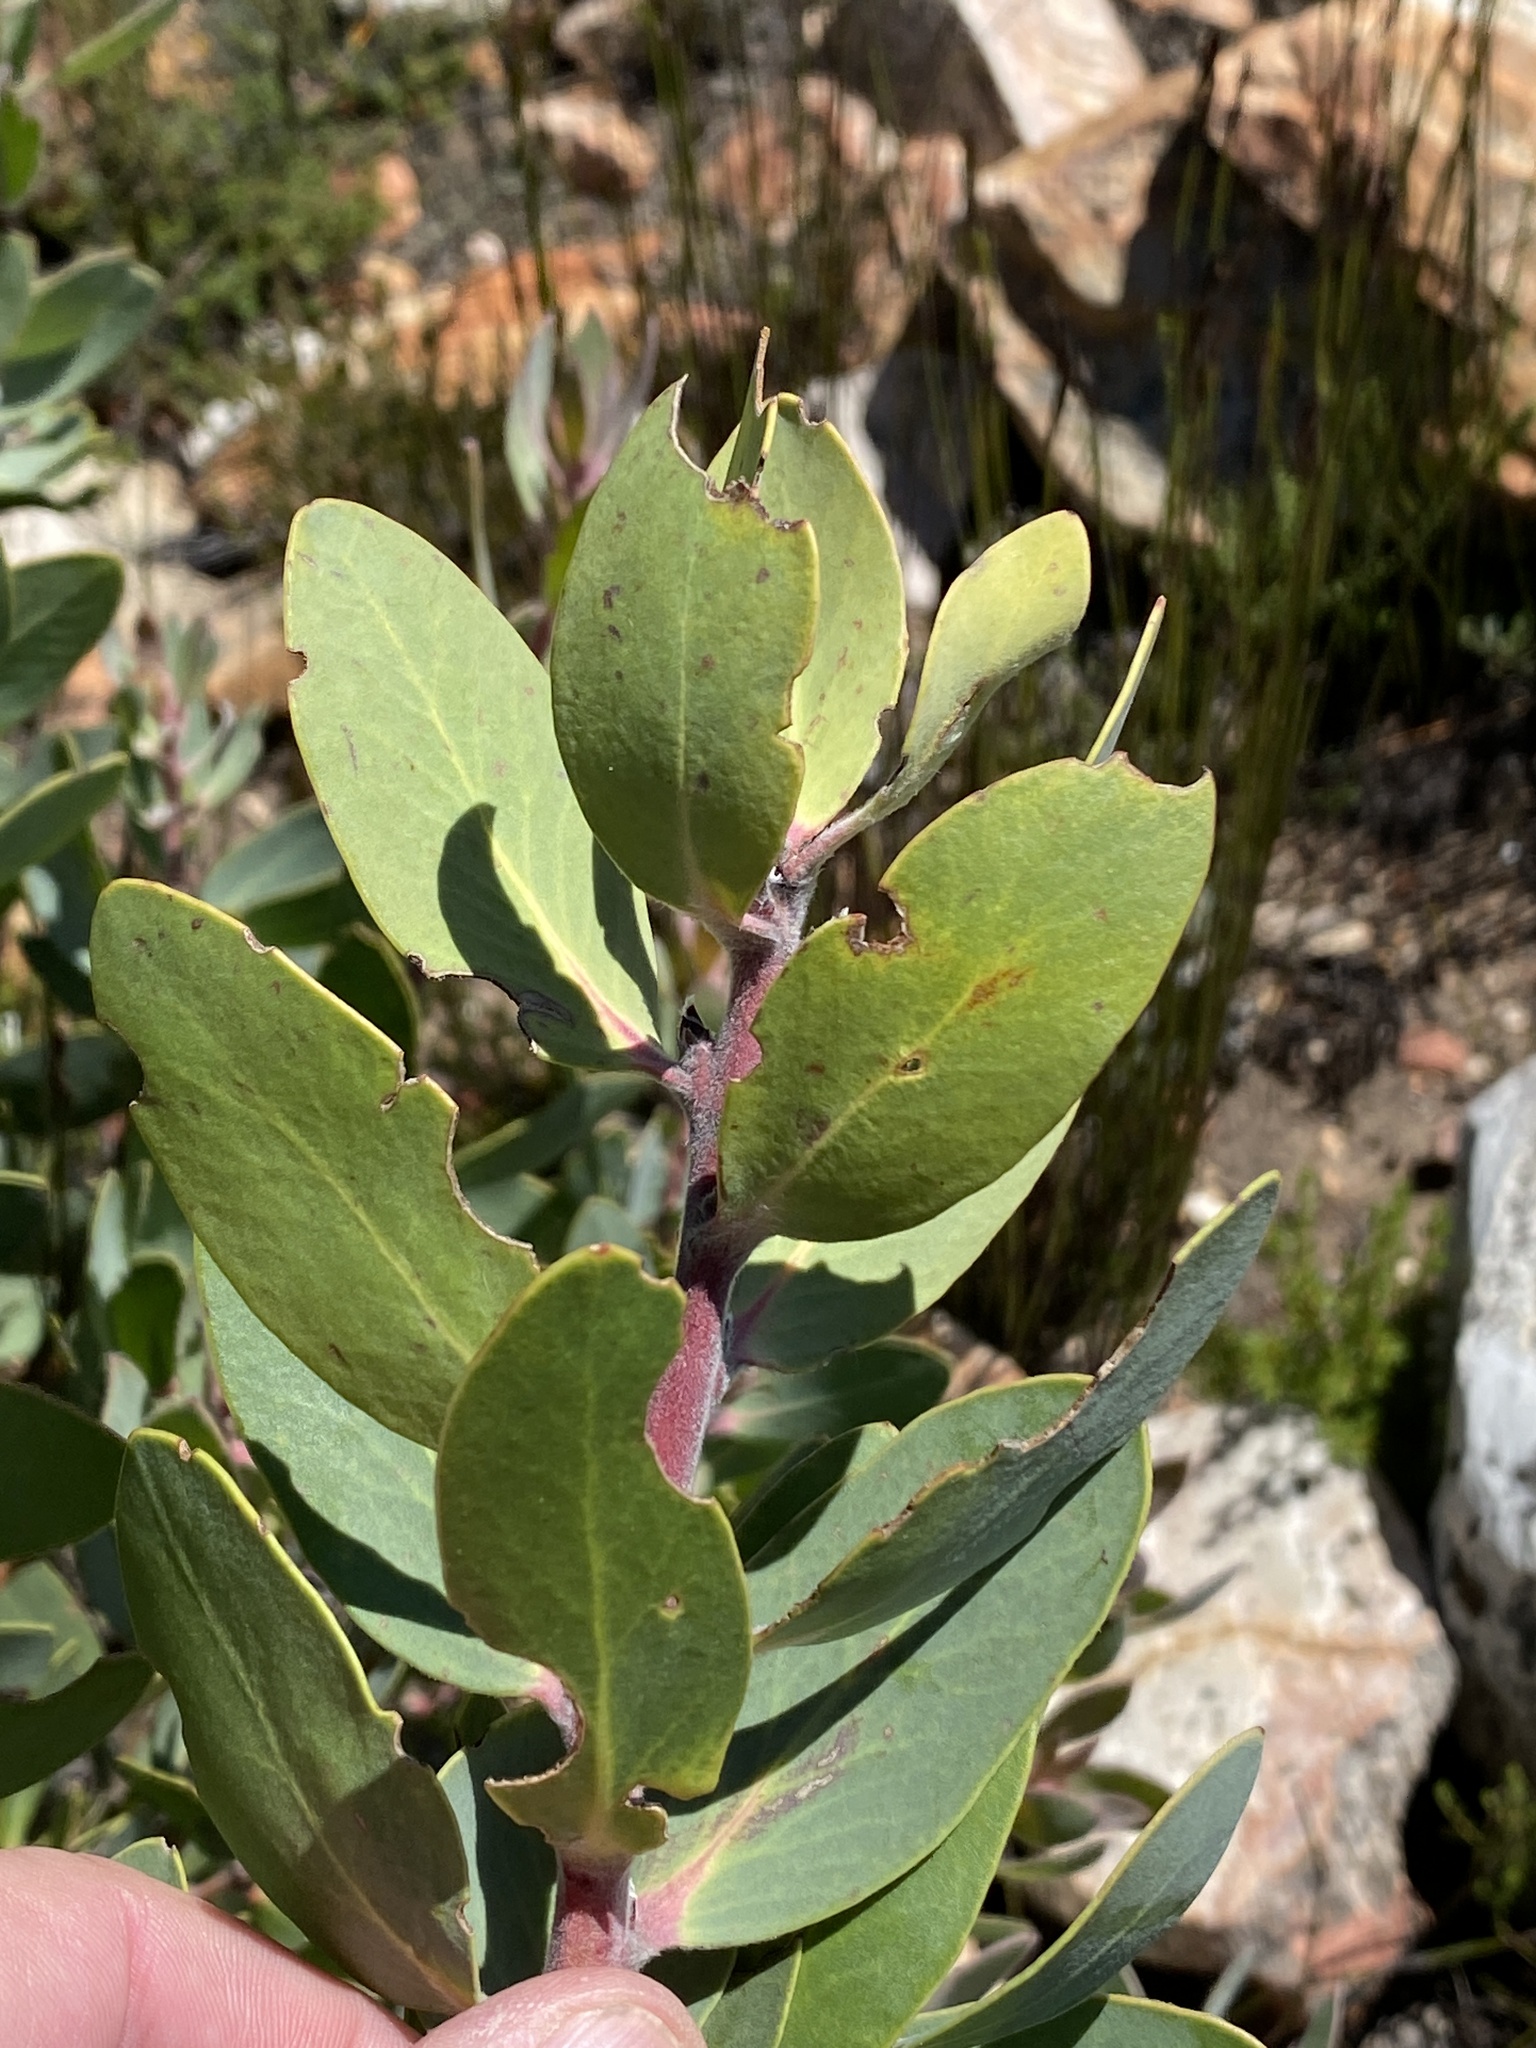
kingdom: Plantae
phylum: Tracheophyta
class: Magnoliopsida
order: Proteales
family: Proteaceae
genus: Protea
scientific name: Protea punctata
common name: Water sugarbush
